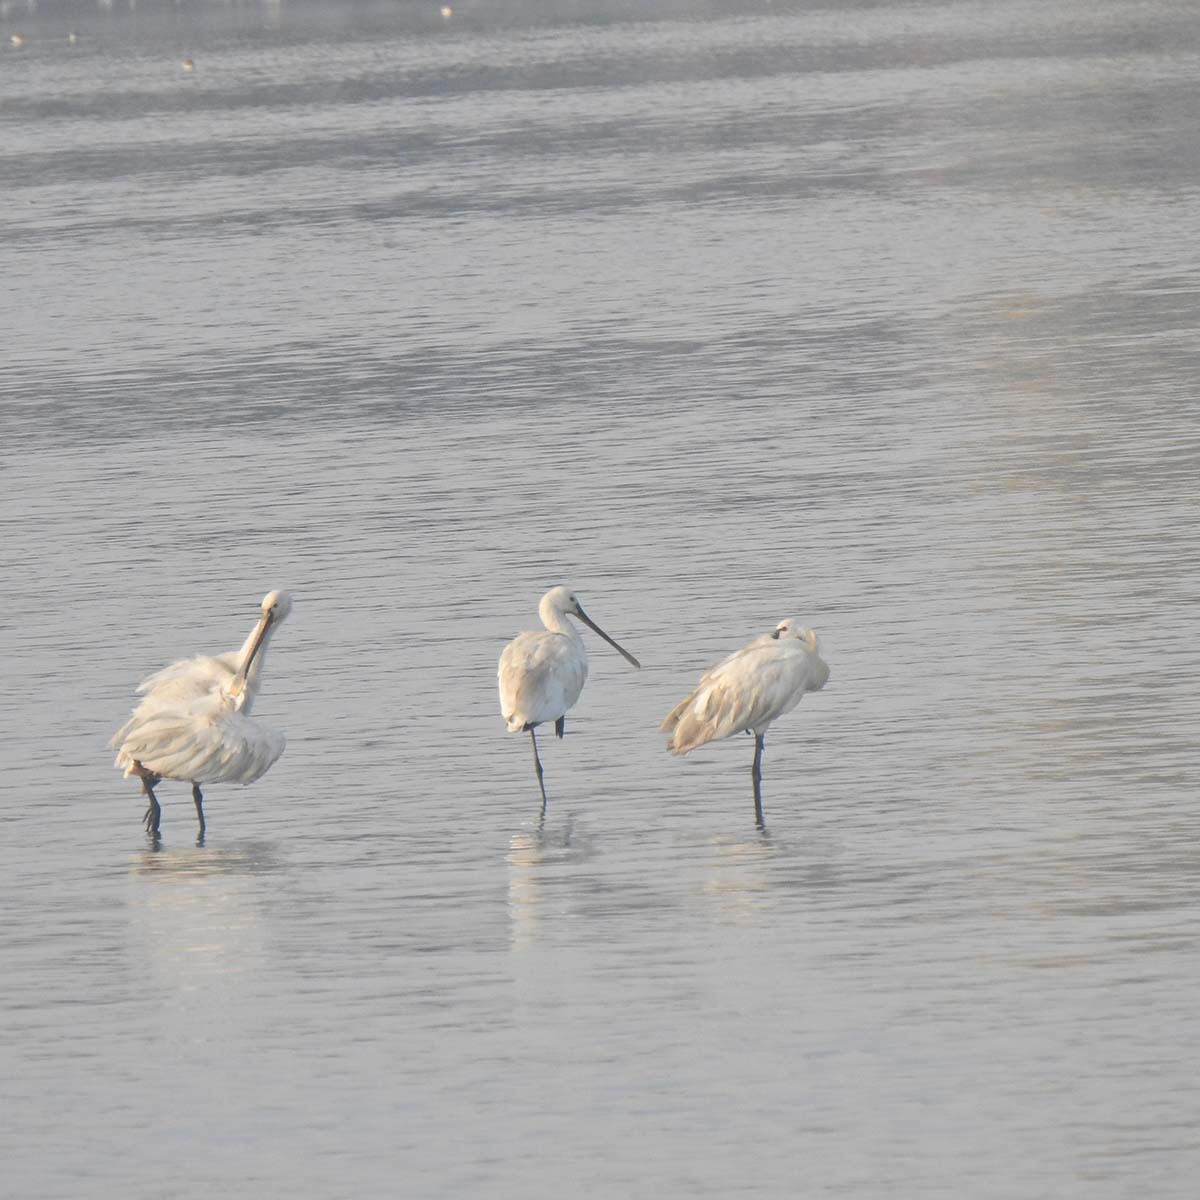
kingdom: Animalia
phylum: Chordata
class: Aves
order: Pelecaniformes
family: Threskiornithidae
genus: Platalea
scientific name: Platalea leucorodia
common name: Eurasian spoonbill
